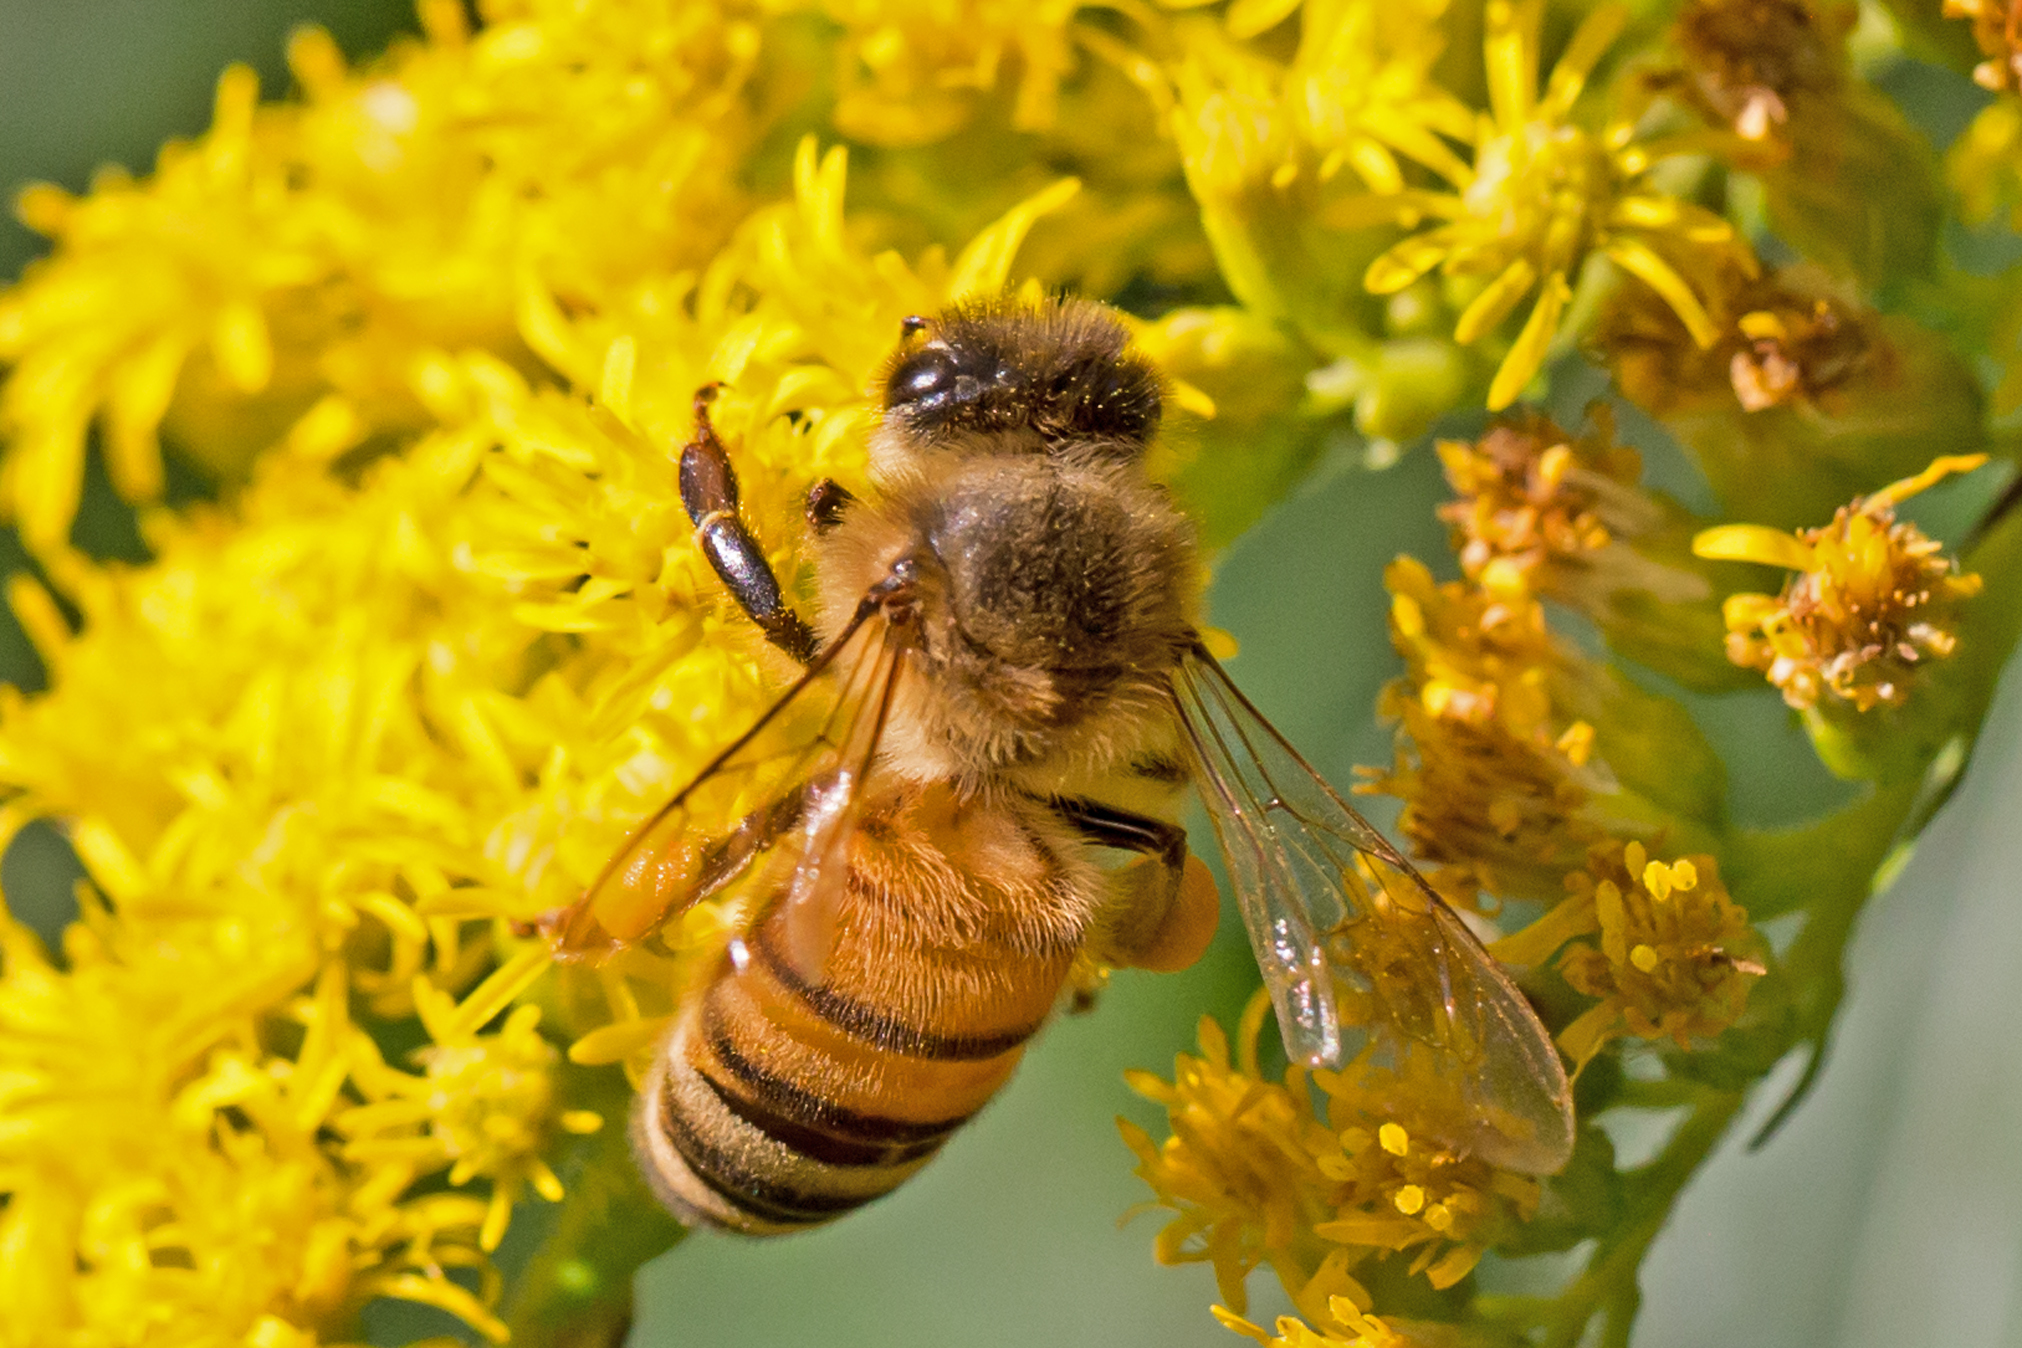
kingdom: Animalia
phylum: Arthropoda
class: Insecta
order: Hymenoptera
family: Apidae
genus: Apis
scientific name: Apis mellifera
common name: Honey bee
